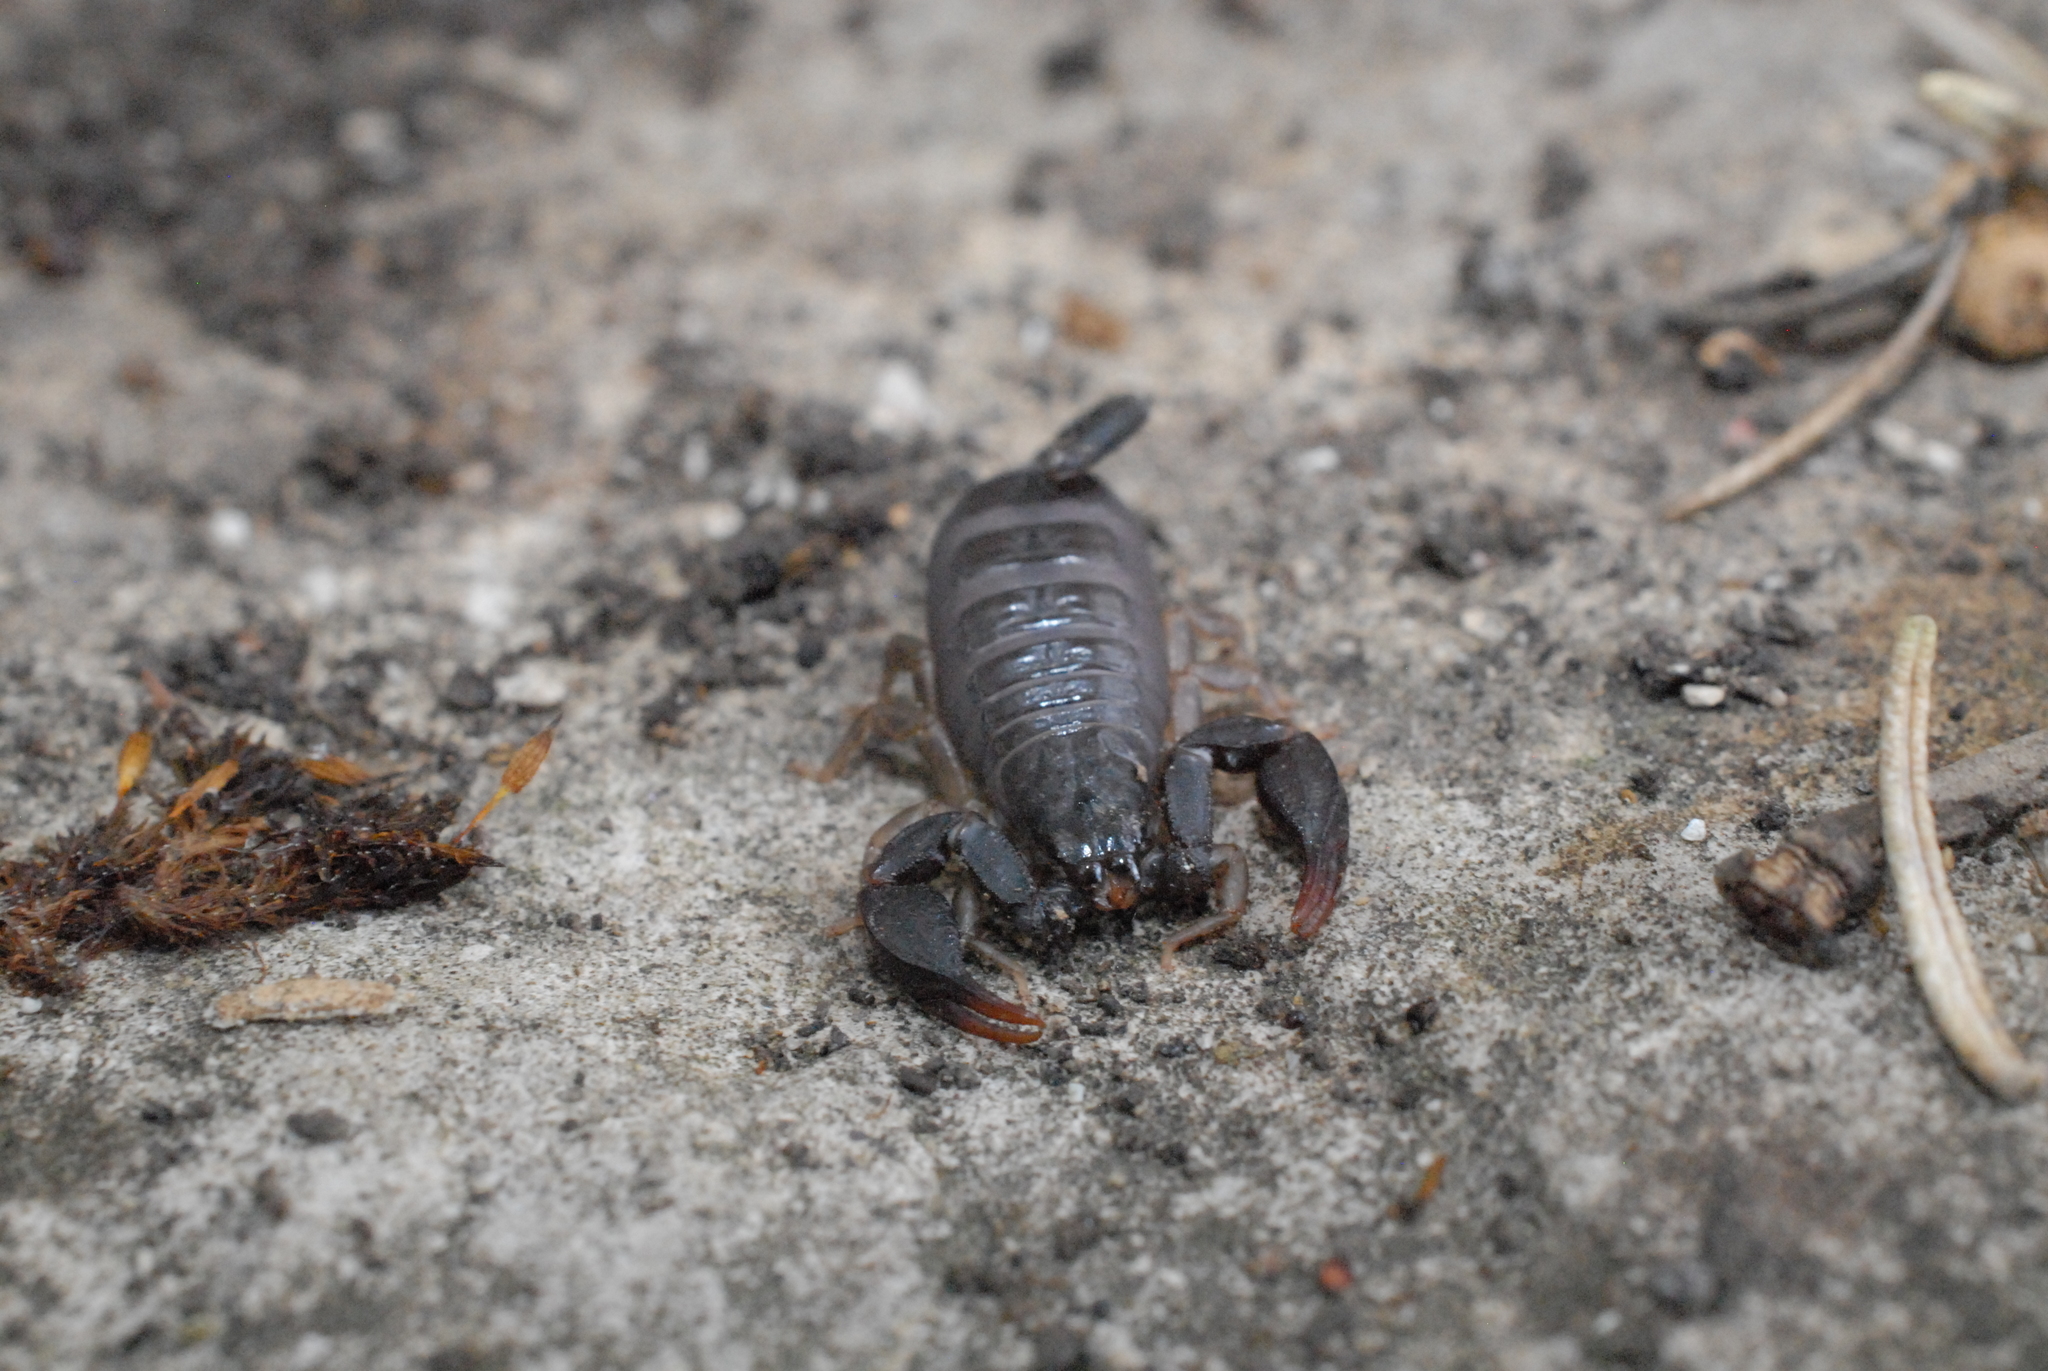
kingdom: Animalia
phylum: Arthropoda
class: Arachnida
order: Scorpiones
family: Euscorpiidae
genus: Euscorpius
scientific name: Euscorpius
